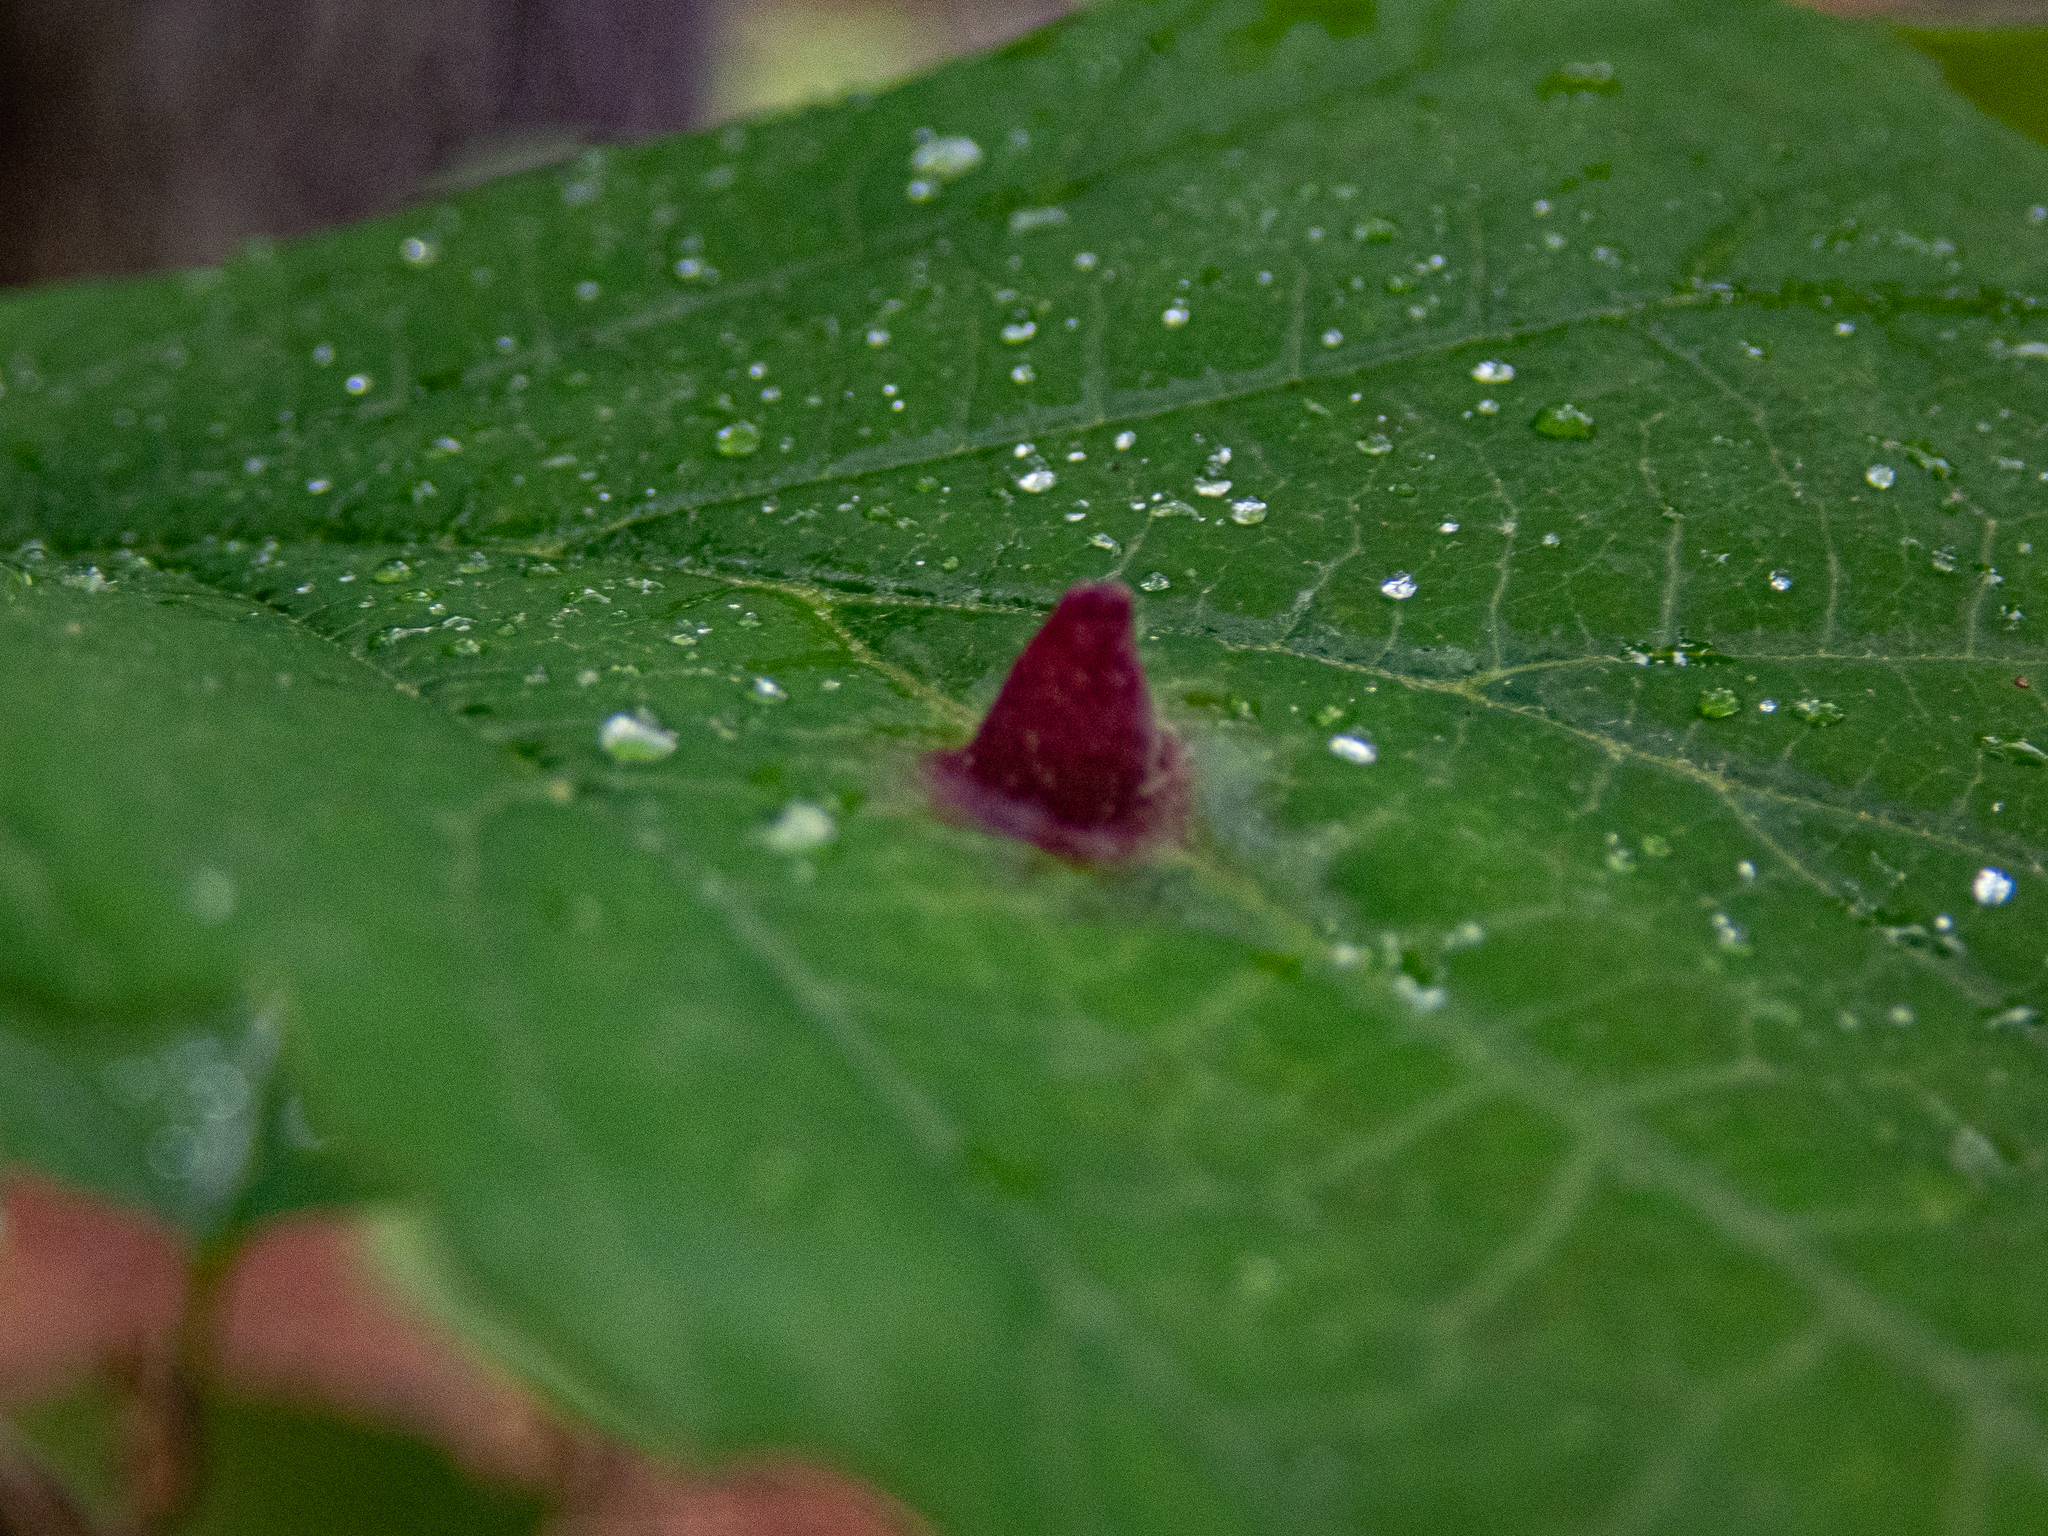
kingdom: Animalia
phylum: Arthropoda
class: Insecta
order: Hemiptera
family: Aphididae
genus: Hormaphis
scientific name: Hormaphis hamamelidis
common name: Witch-hazel cone gall aphid
